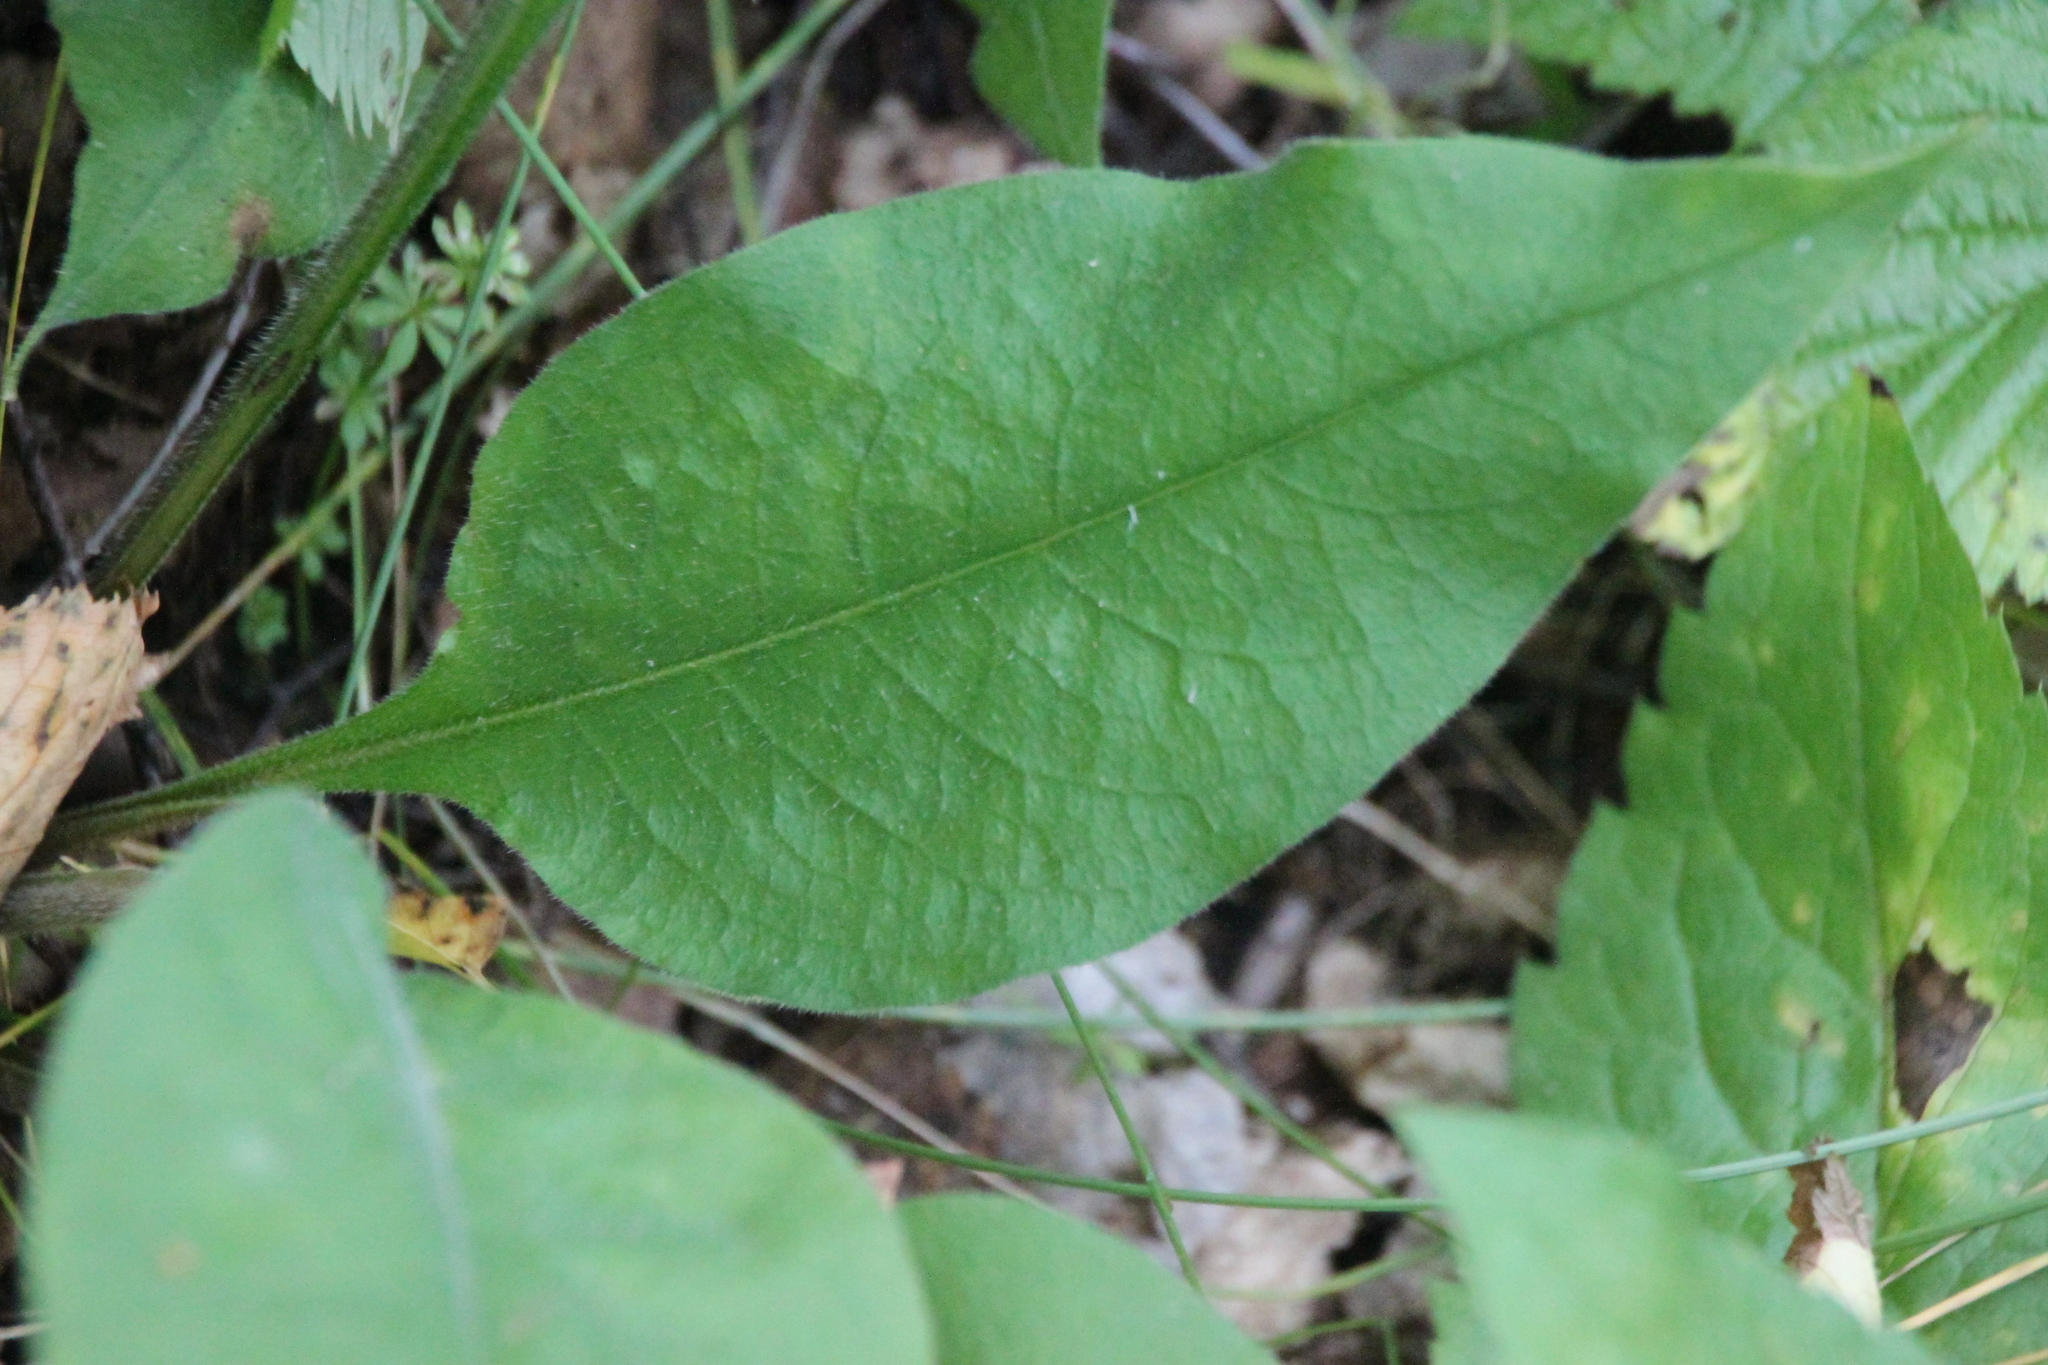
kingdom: Plantae
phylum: Tracheophyta
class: Magnoliopsida
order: Boraginales
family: Boraginaceae
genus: Pulmonaria
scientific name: Pulmonaria obscura
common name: Suffolk lungwort
